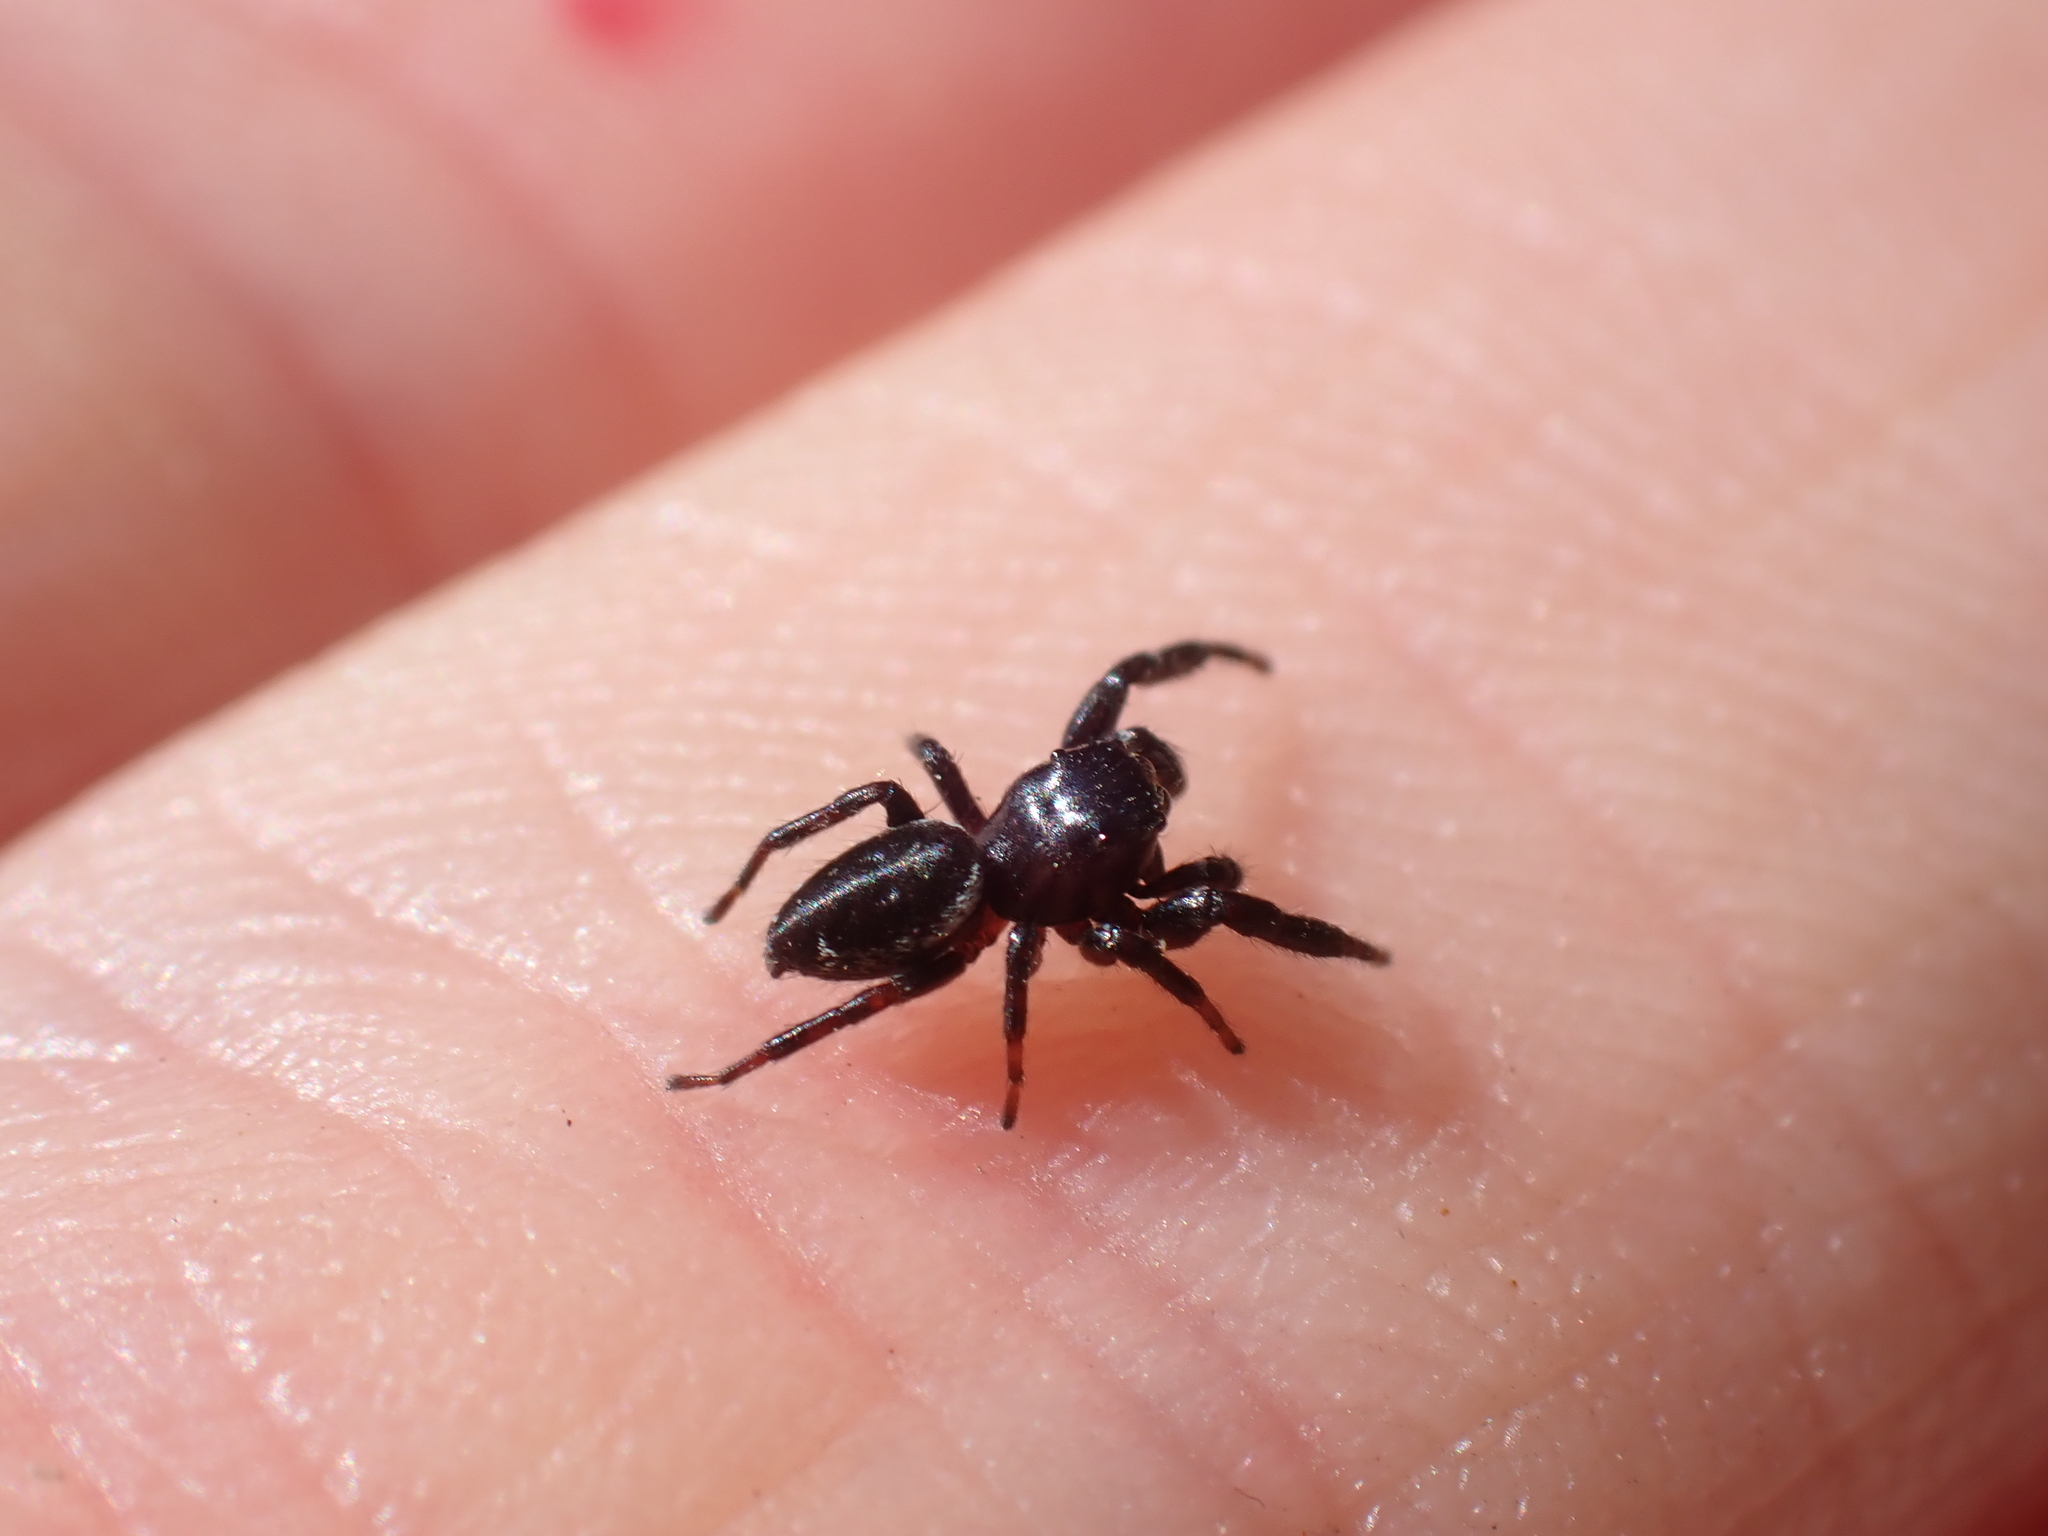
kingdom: Animalia
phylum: Arthropoda
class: Arachnida
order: Araneae
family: Salticidae
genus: Metaphidippus
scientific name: Metaphidippus manni
